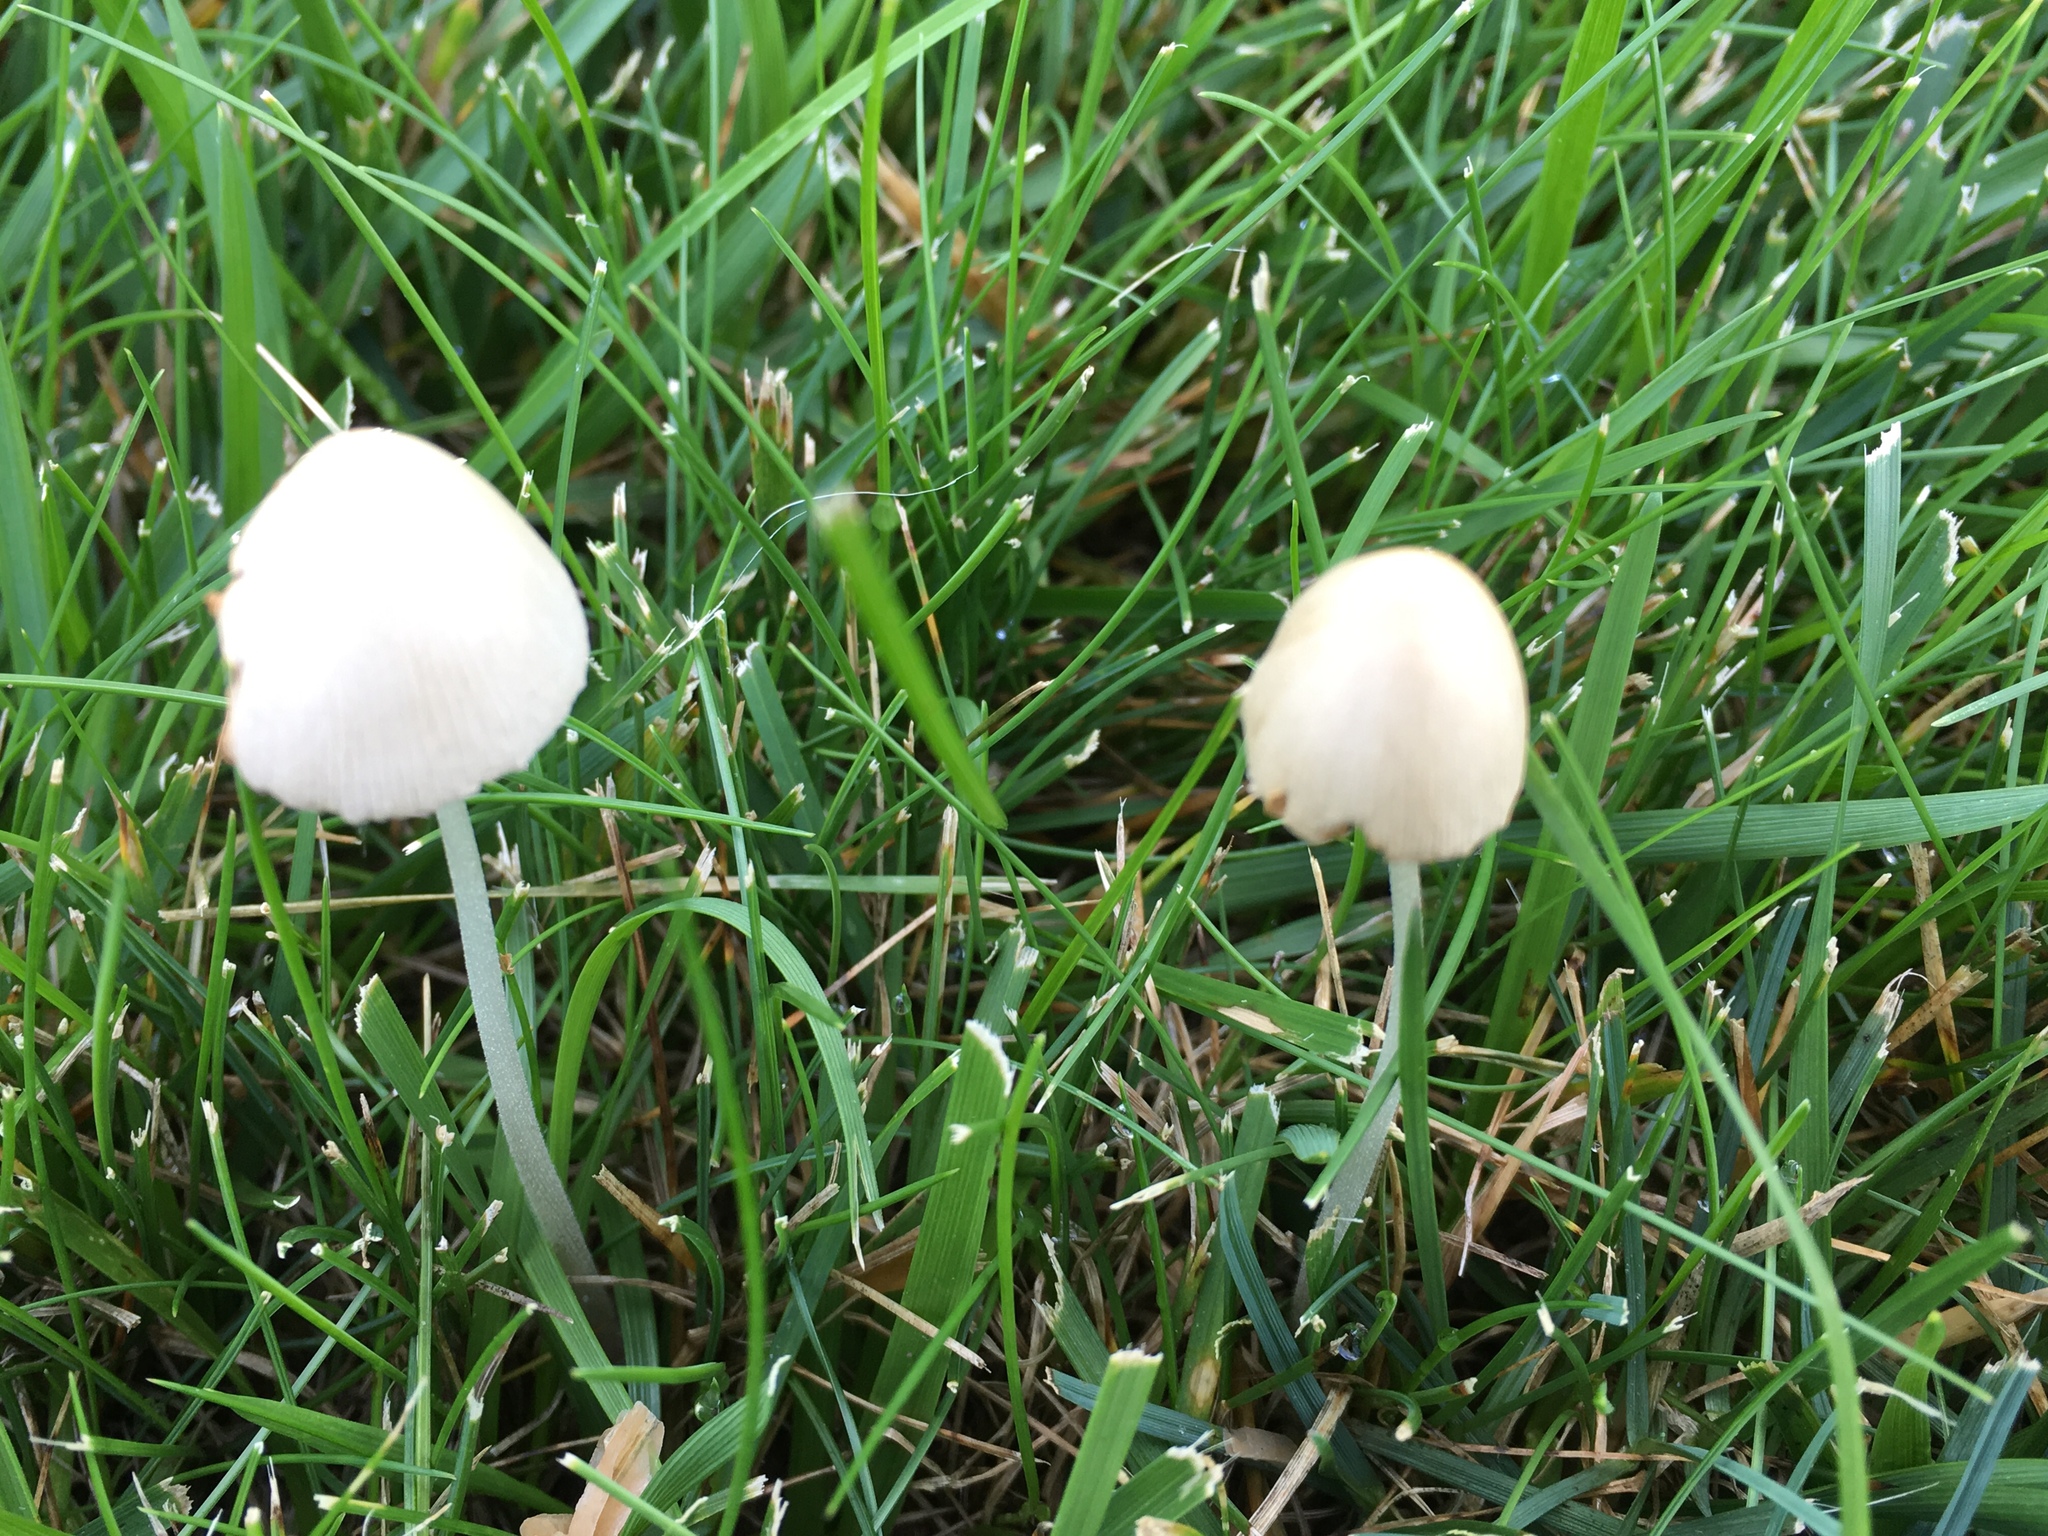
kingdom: Fungi
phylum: Basidiomycota
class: Agaricomycetes
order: Agaricales
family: Bolbitiaceae
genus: Conocybe
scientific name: Conocybe apala
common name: Milky conecap
